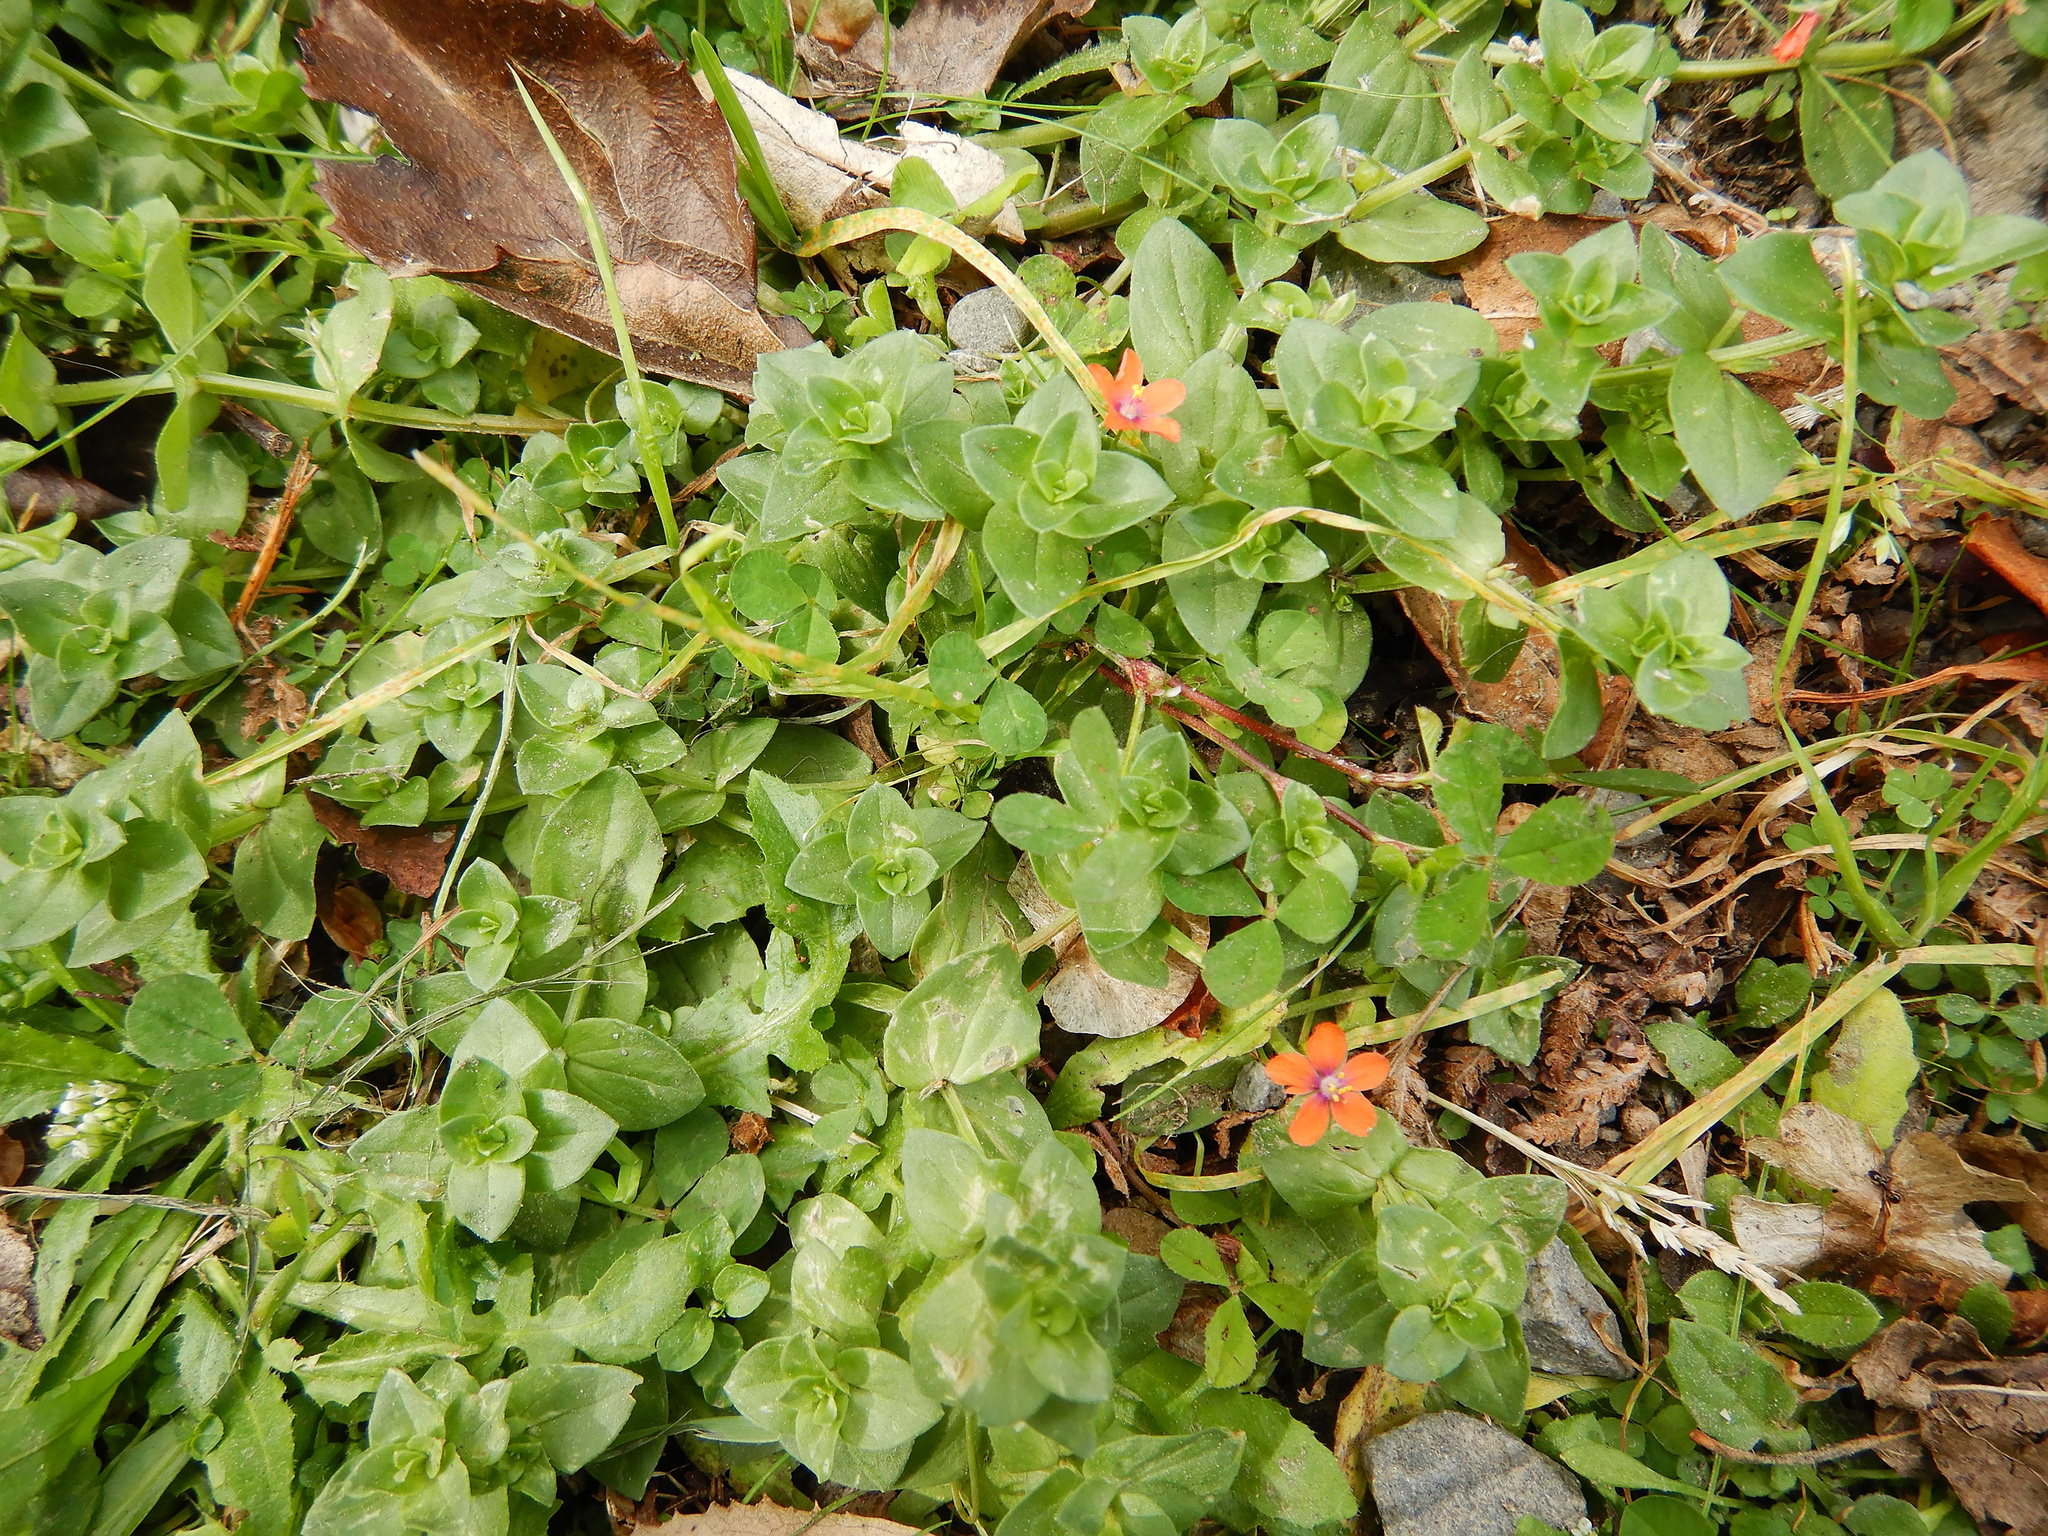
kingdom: Plantae
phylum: Tracheophyta
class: Magnoliopsida
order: Ericales
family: Primulaceae
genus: Lysimachia
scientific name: Lysimachia arvensis
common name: Scarlet pimpernel
